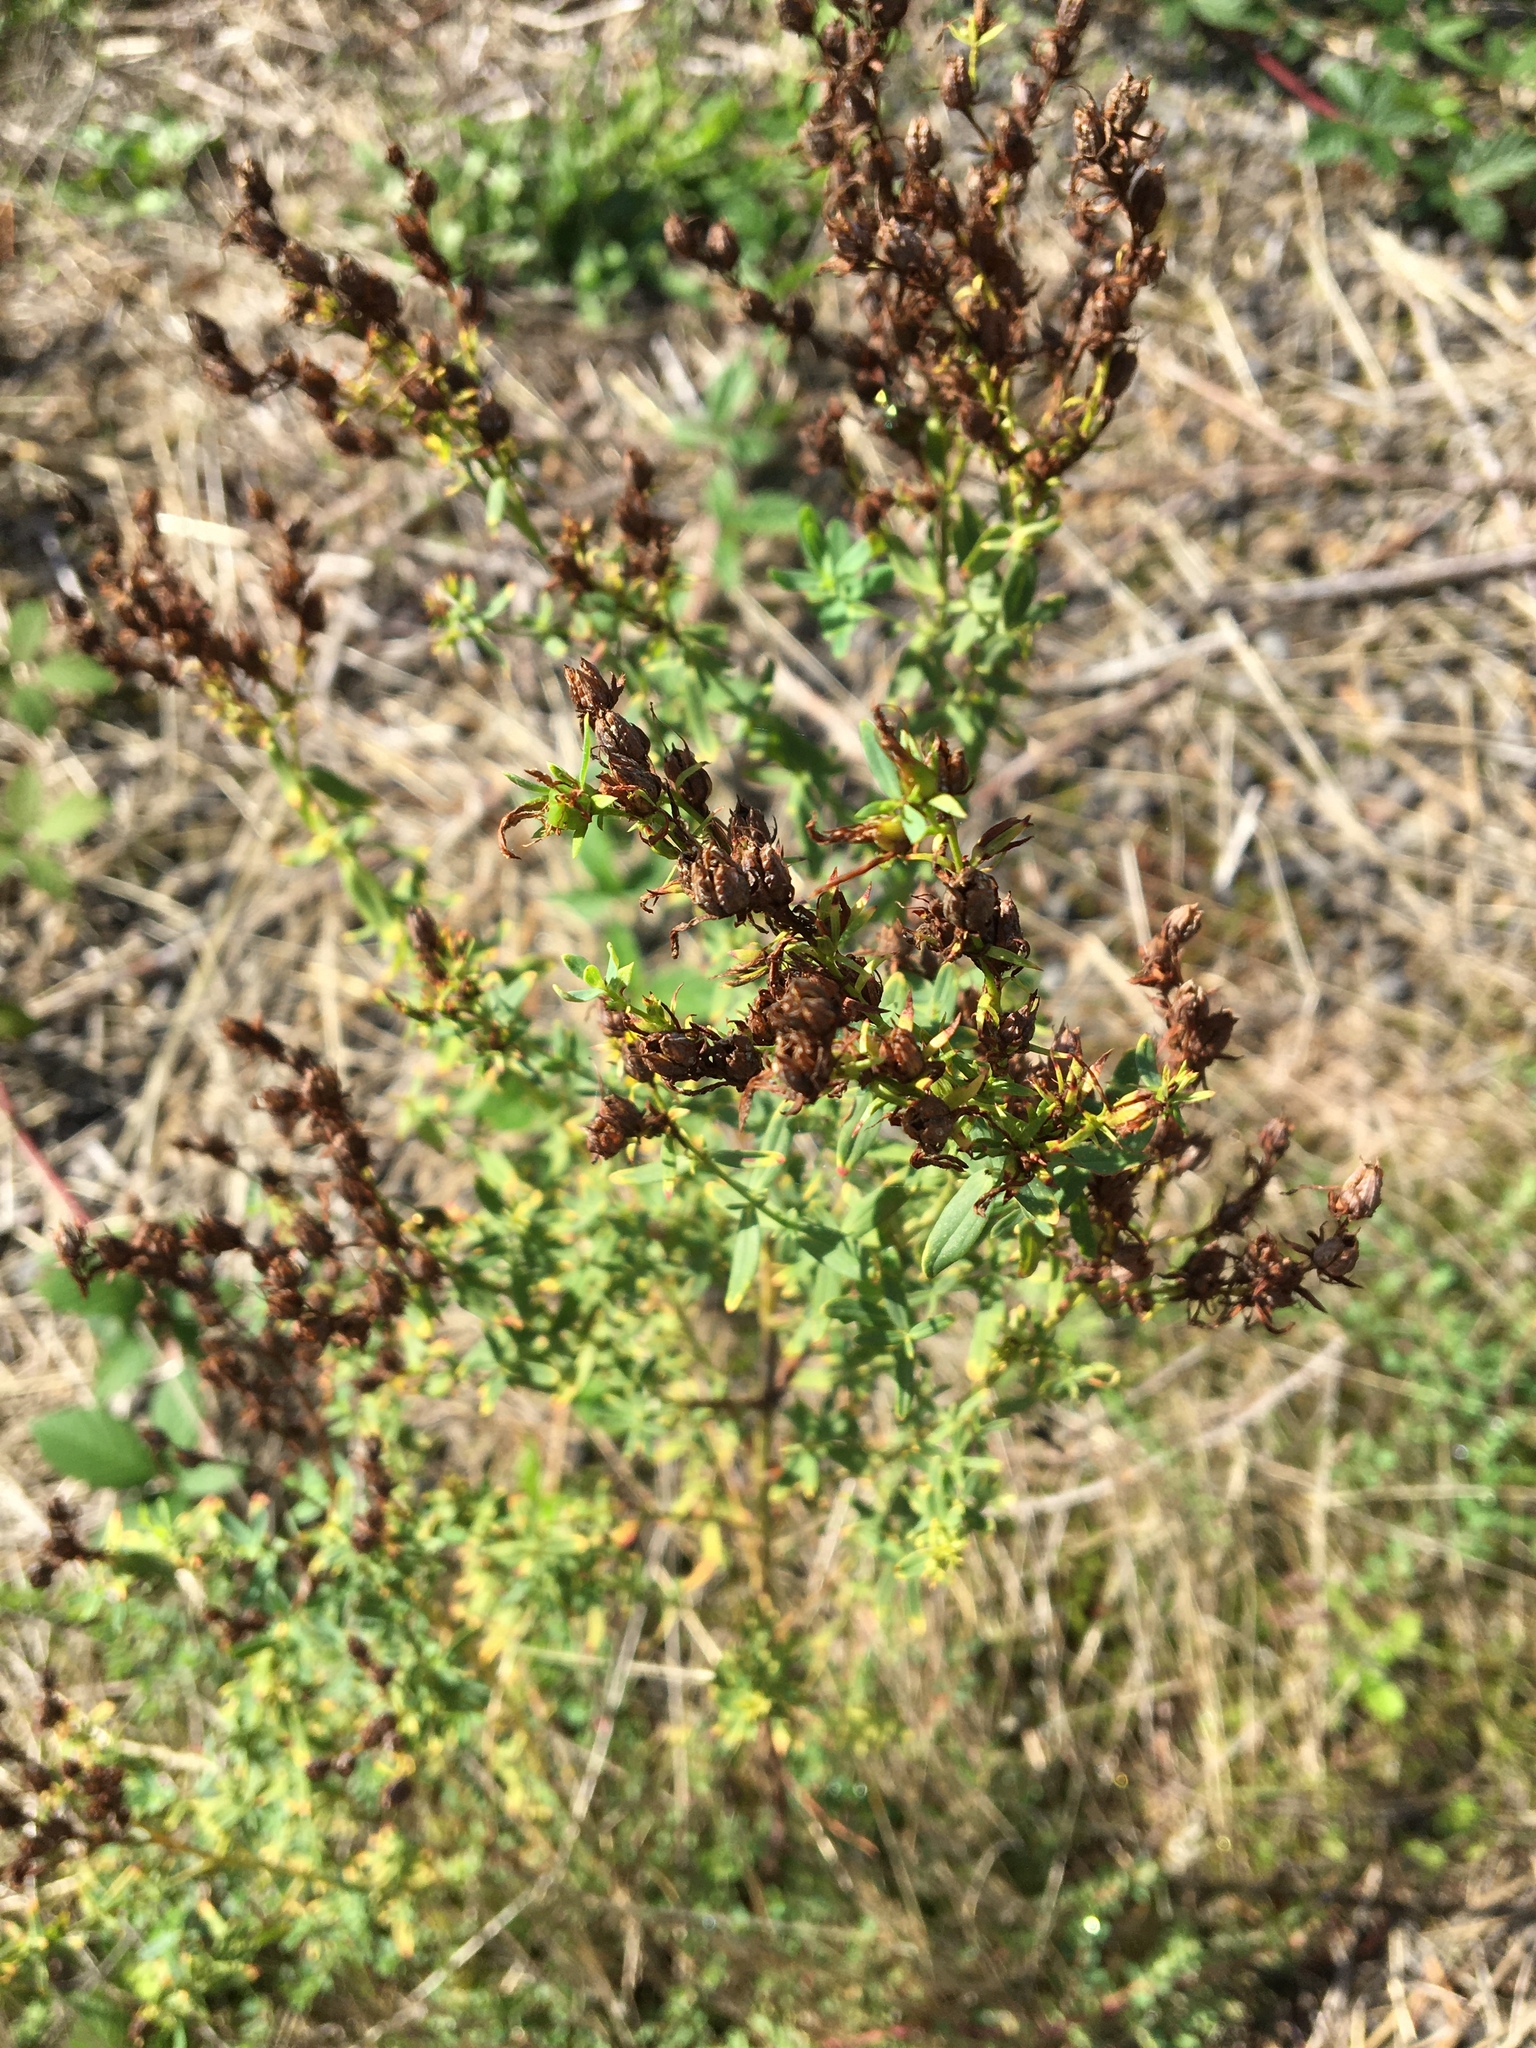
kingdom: Plantae
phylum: Tracheophyta
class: Magnoliopsida
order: Malpighiales
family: Hypericaceae
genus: Hypericum
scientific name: Hypericum perforatum
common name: Common st. johnswort
